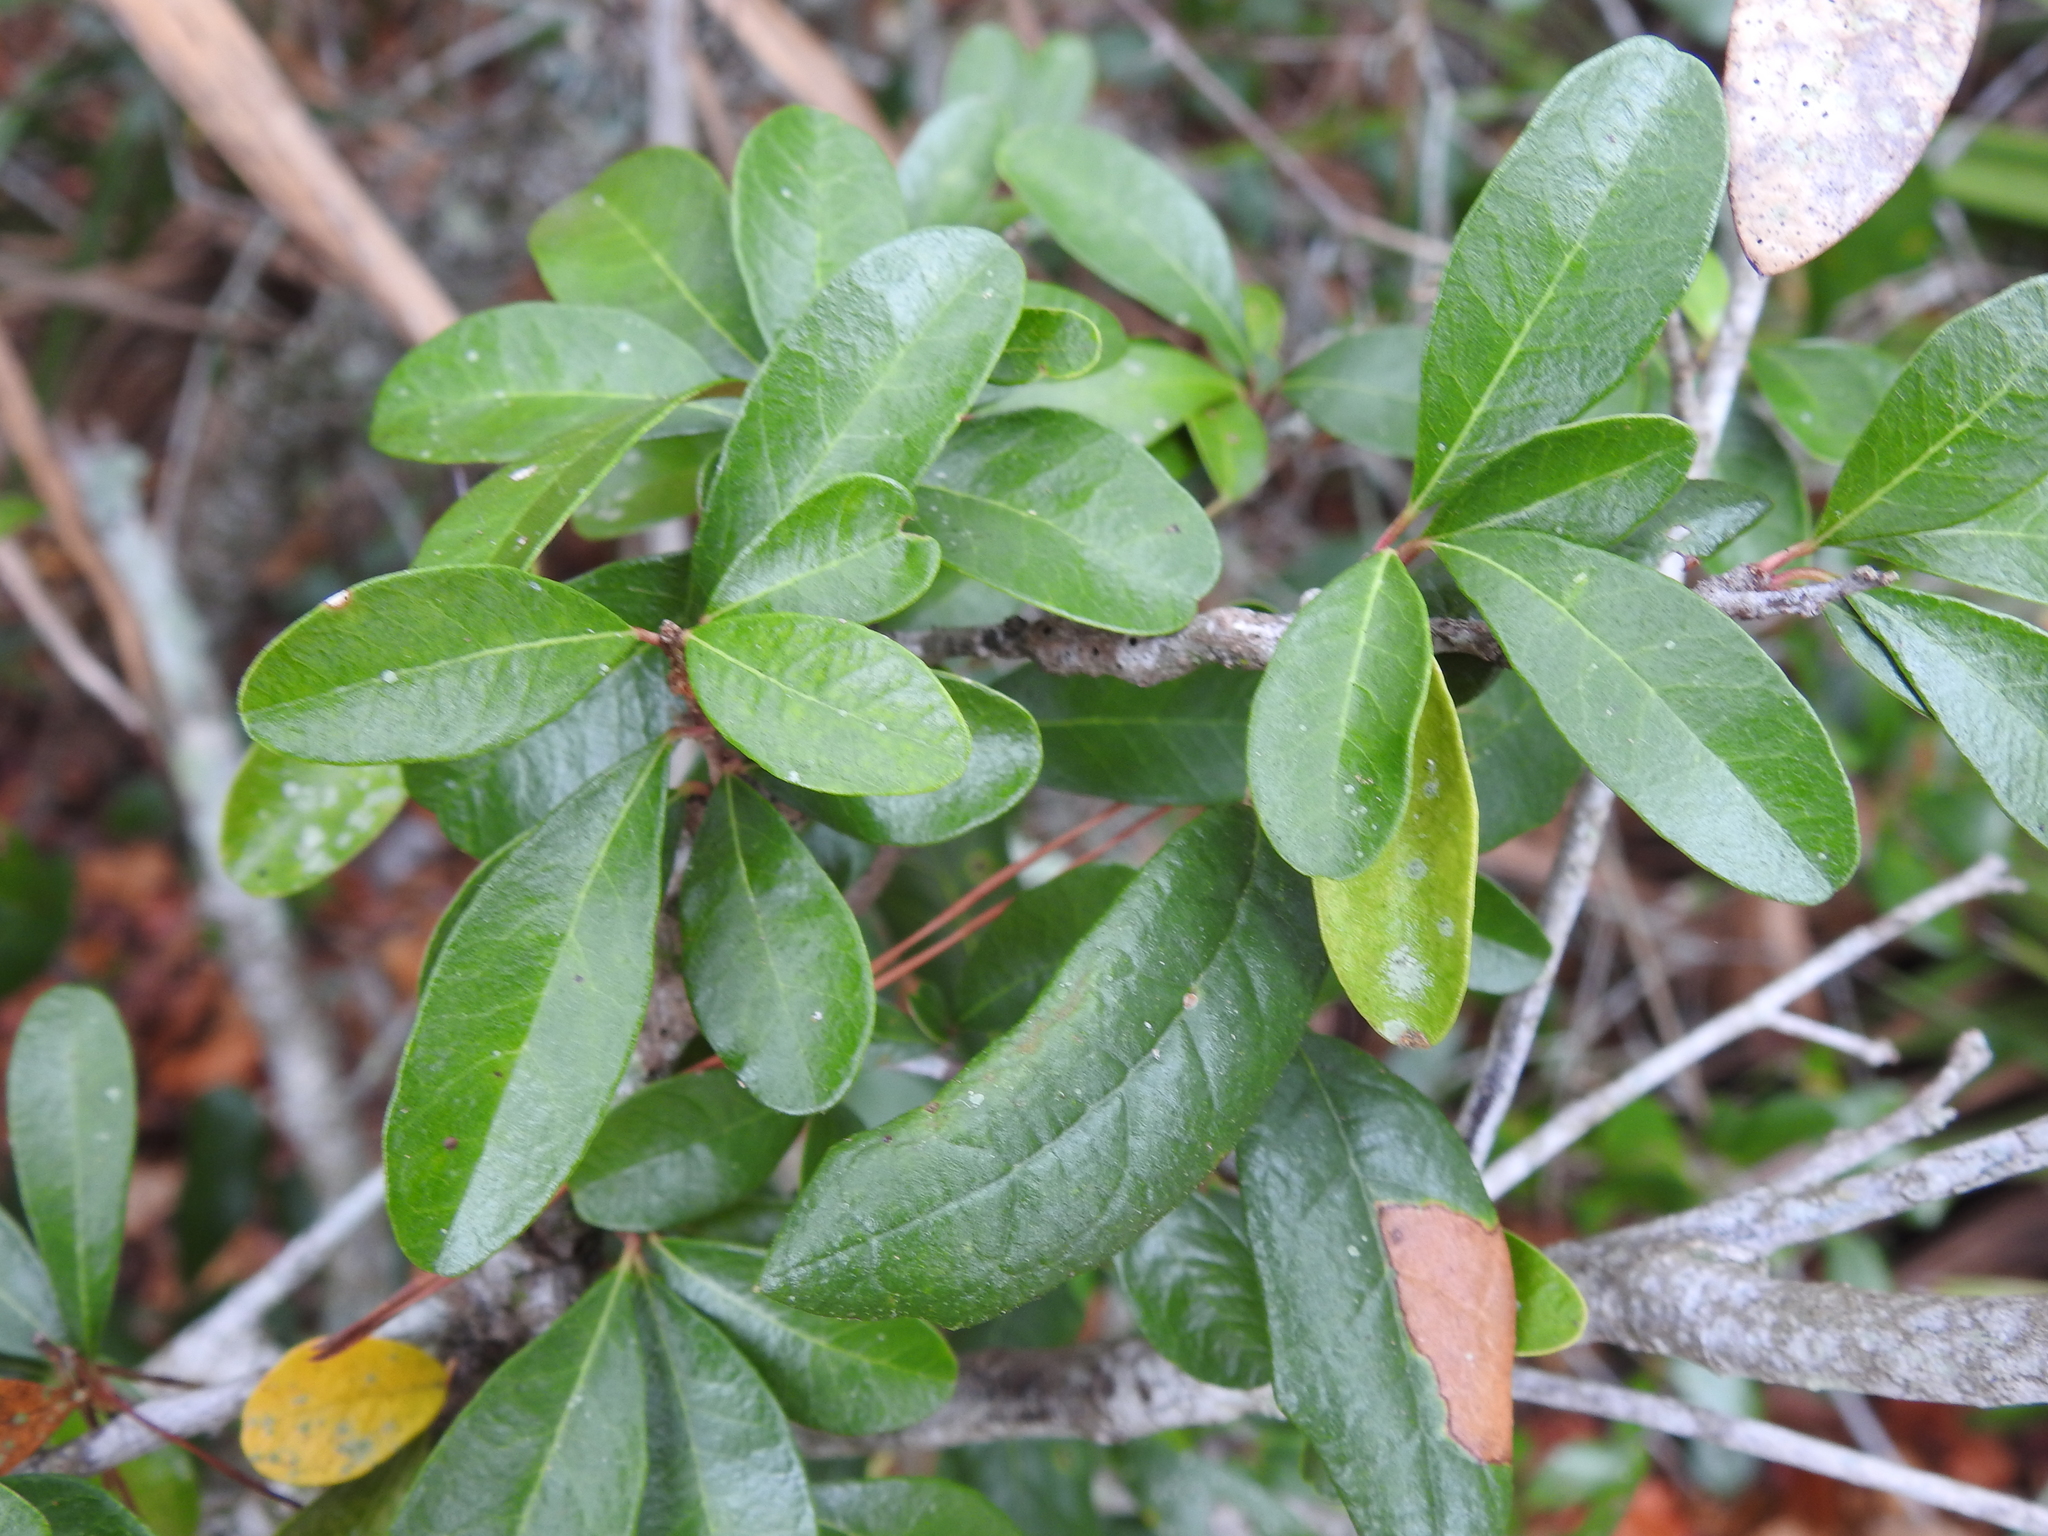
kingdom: Plantae
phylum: Tracheophyta
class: Magnoliopsida
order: Ericales
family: Sapotaceae
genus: Sideroxylon
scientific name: Sideroxylon tenax
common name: Tough-buckthorn
